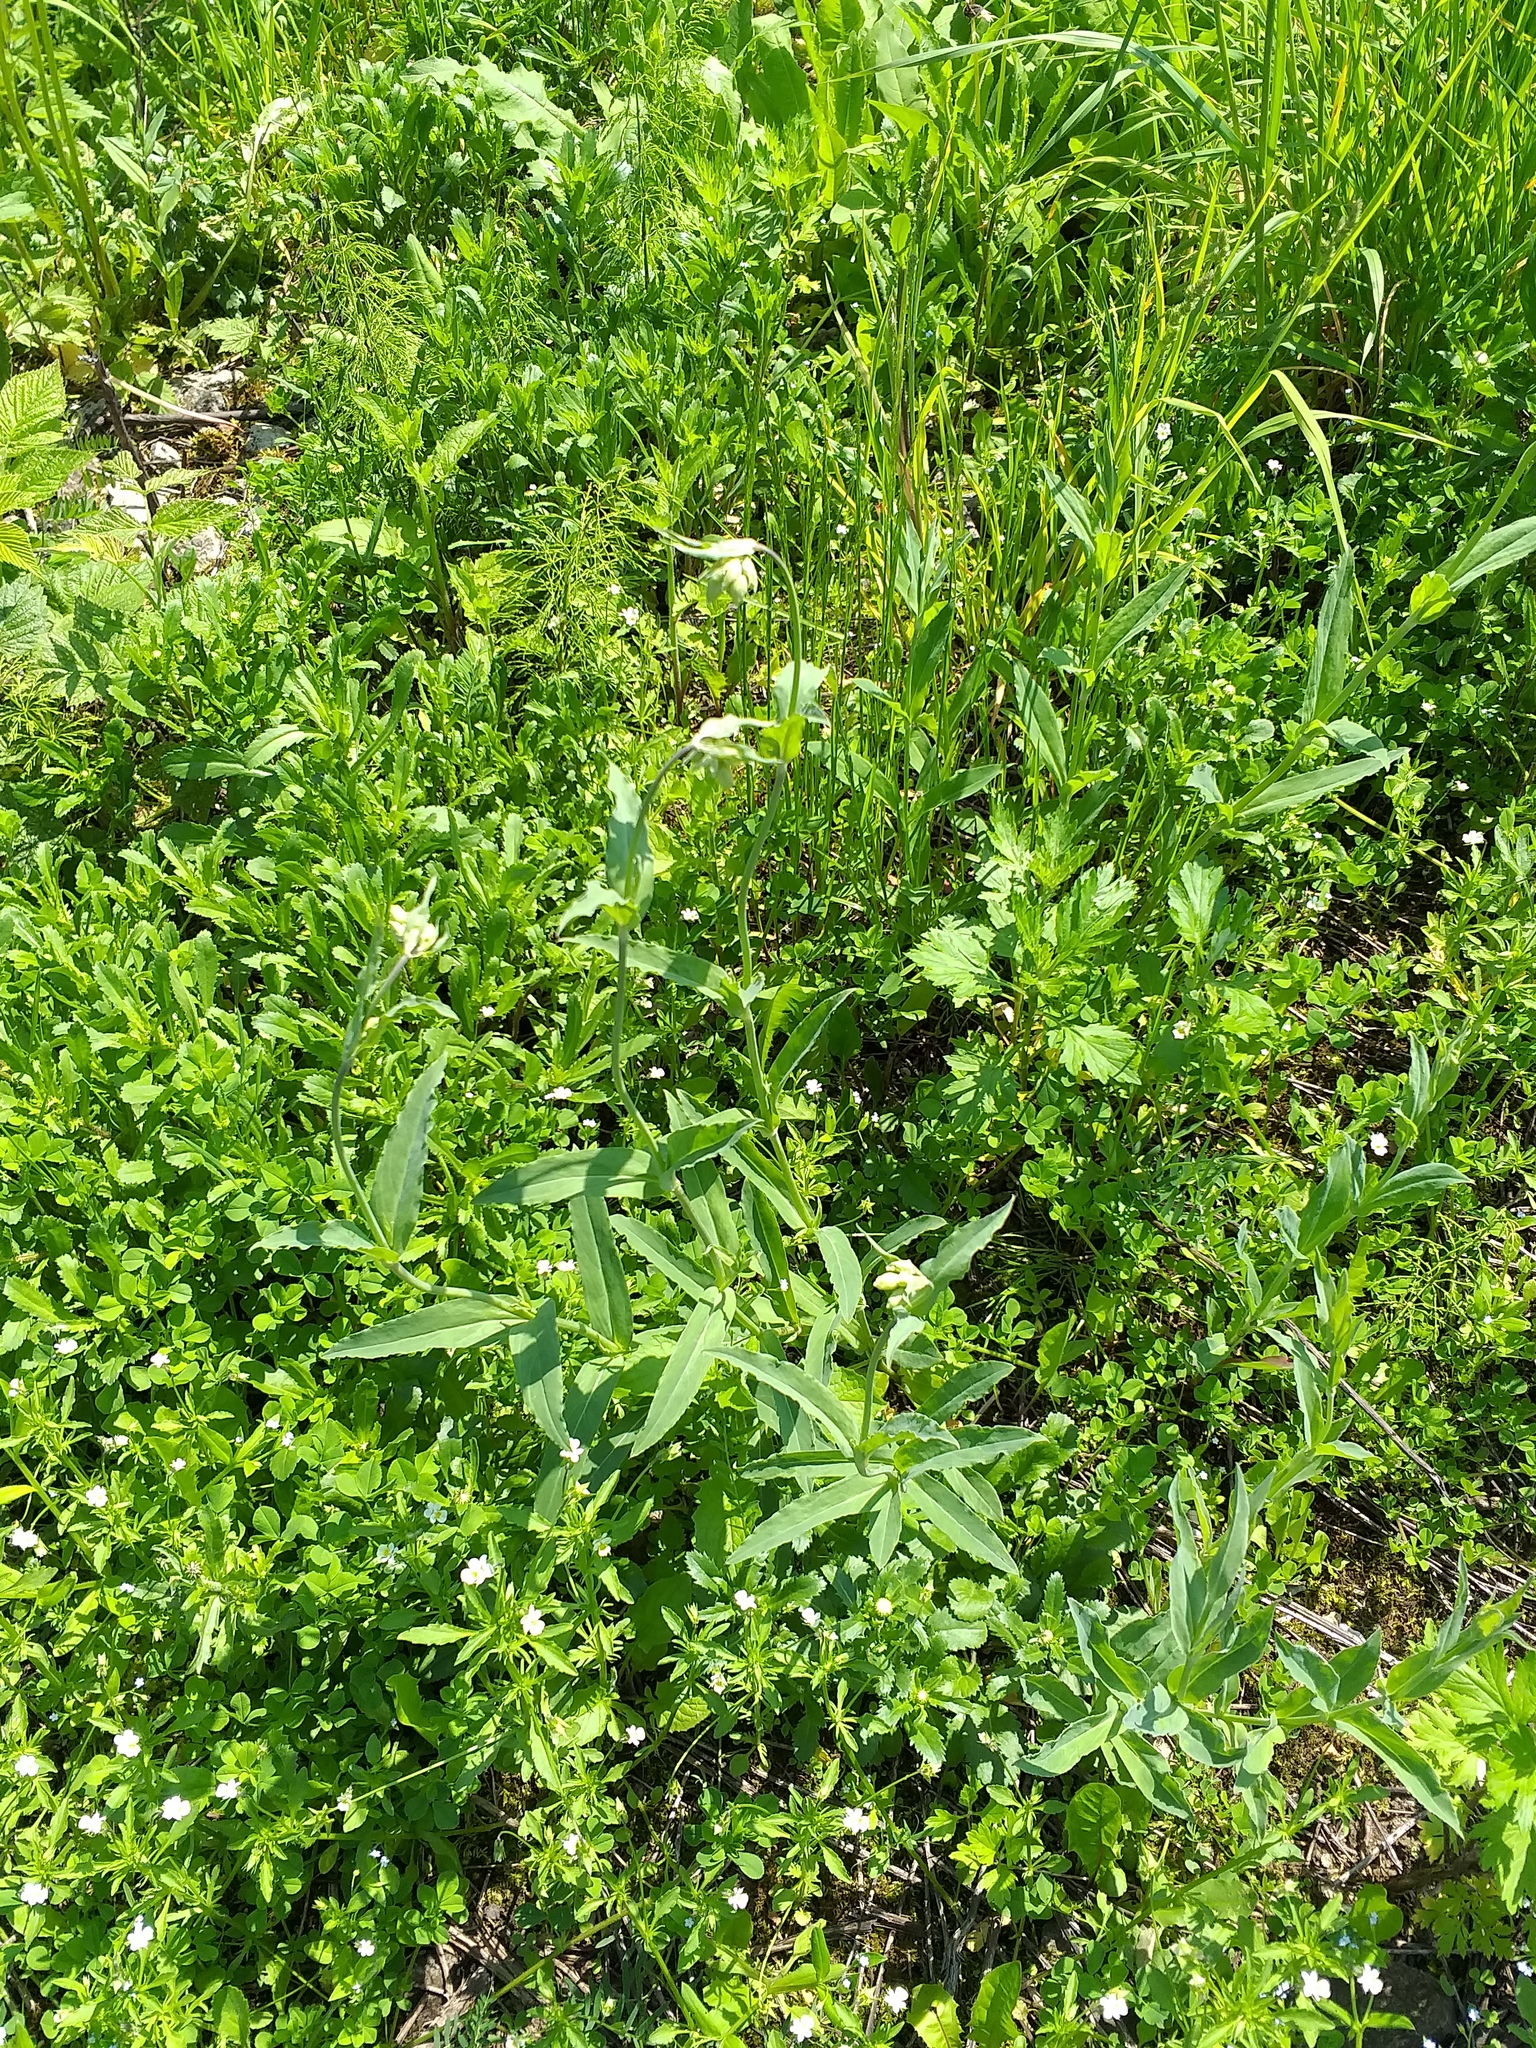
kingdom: Plantae
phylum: Tracheophyta
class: Magnoliopsida
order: Caryophyllales
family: Caryophyllaceae
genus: Silene
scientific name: Silene vulgaris
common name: Bladder campion
